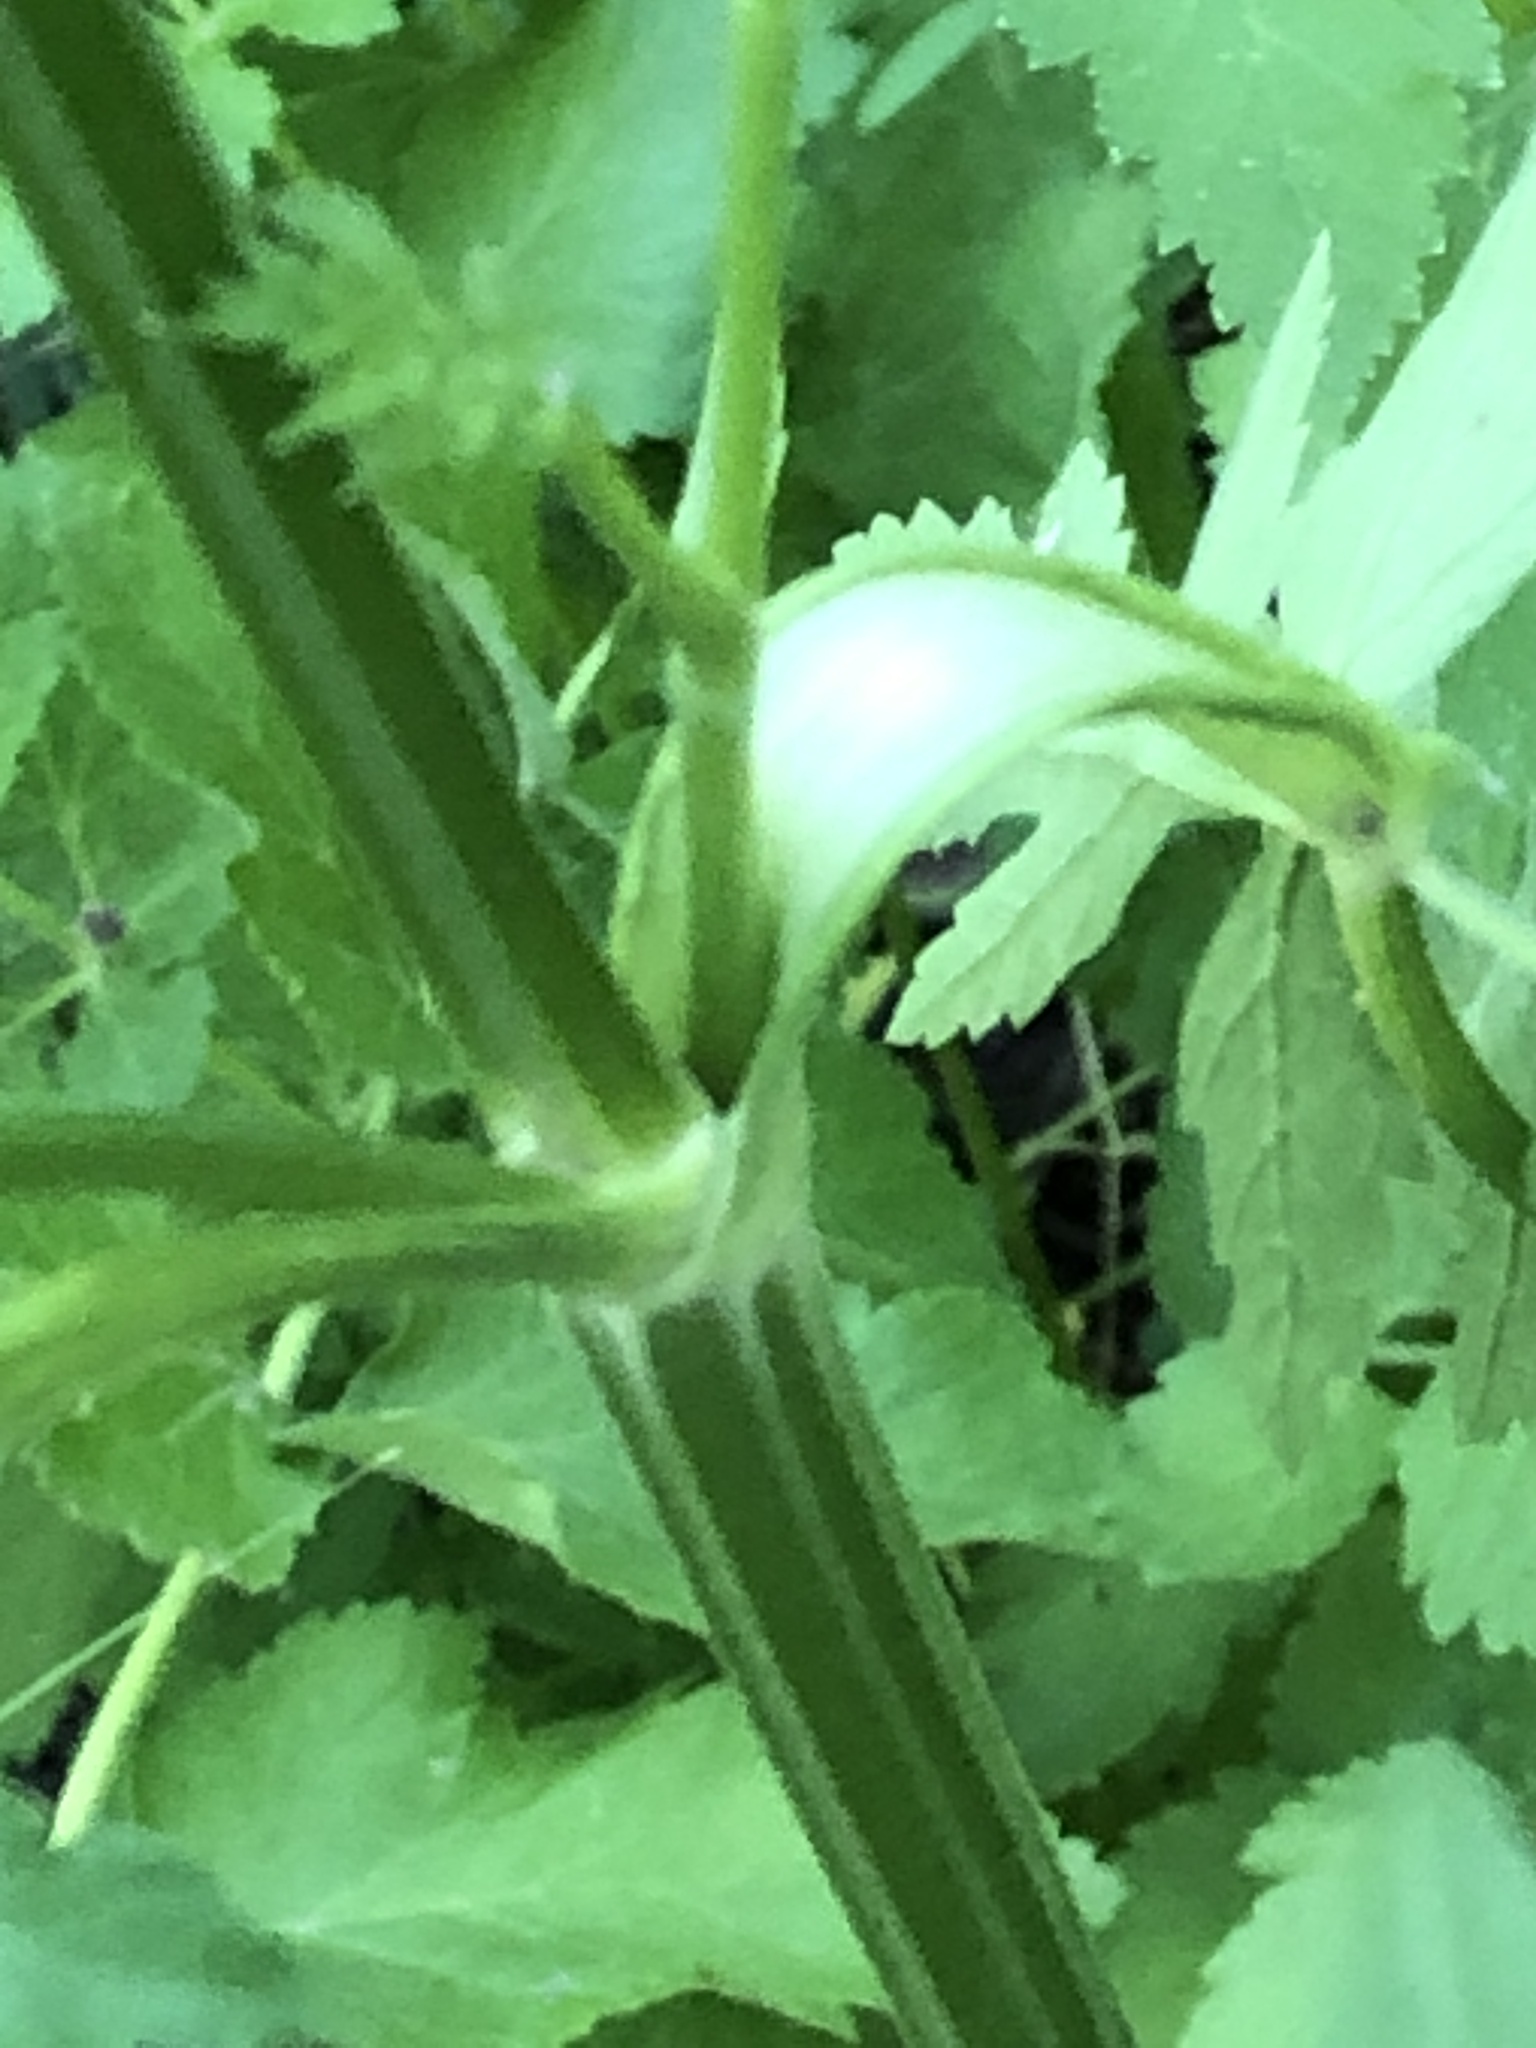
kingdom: Plantae
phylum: Tracheophyta
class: Magnoliopsida
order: Apiales
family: Apiaceae
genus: Pastinaca
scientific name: Pastinaca sativa
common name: Wild parsnip
